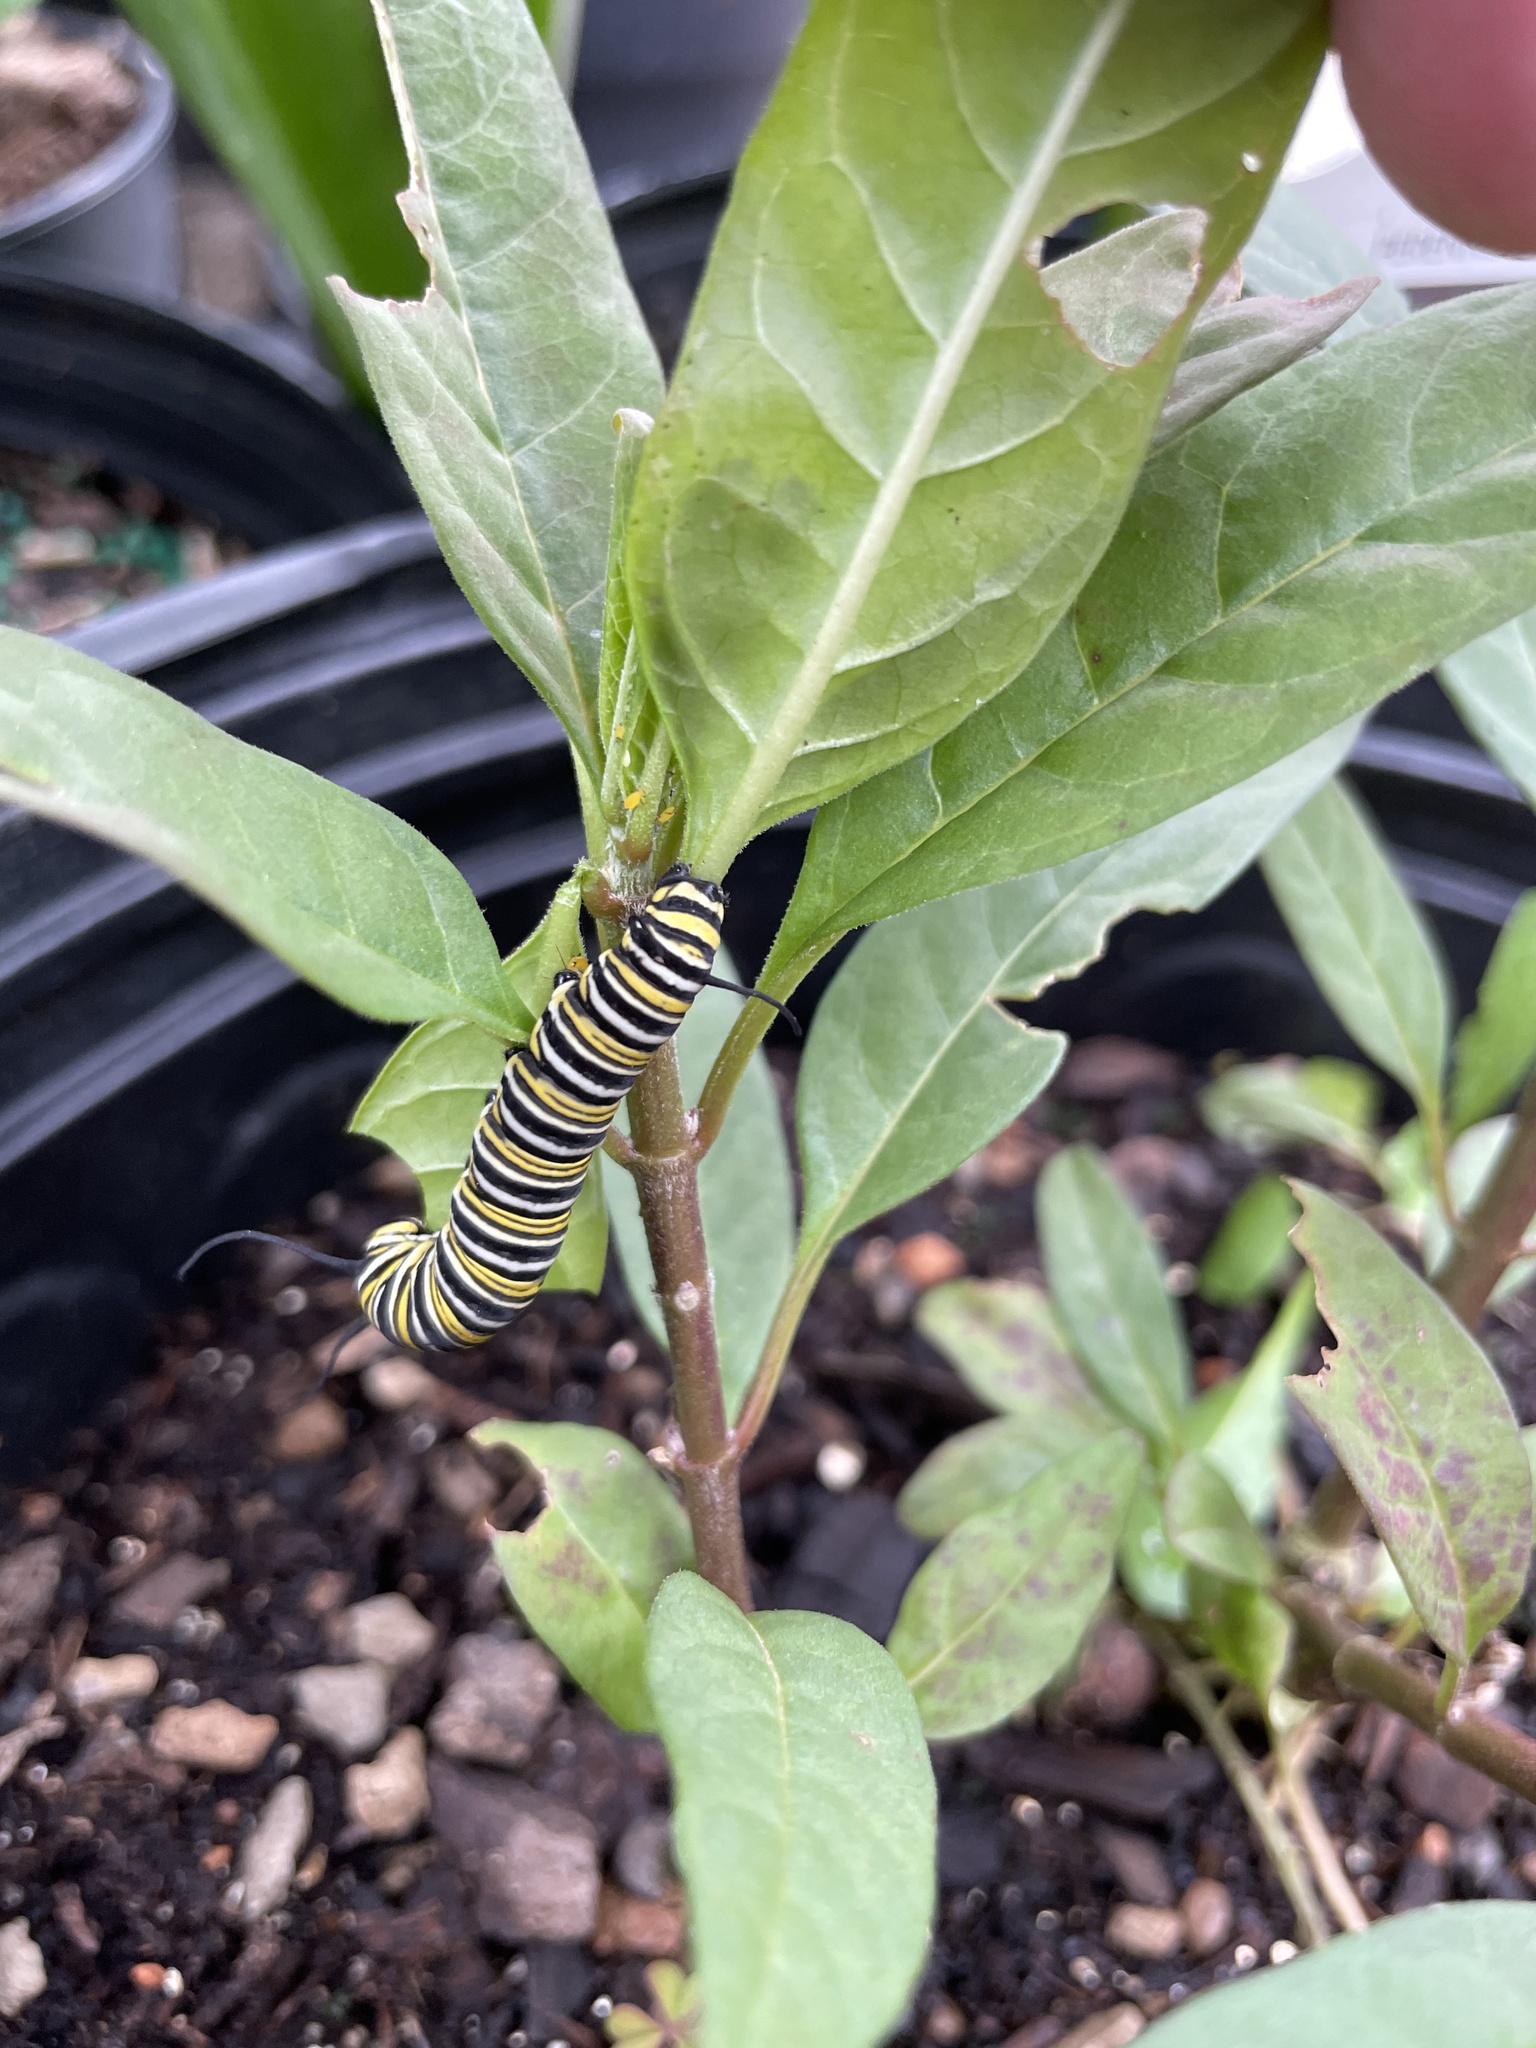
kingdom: Animalia
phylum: Arthropoda
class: Insecta
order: Lepidoptera
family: Nymphalidae
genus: Danaus
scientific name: Danaus plexippus
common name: Monarch
